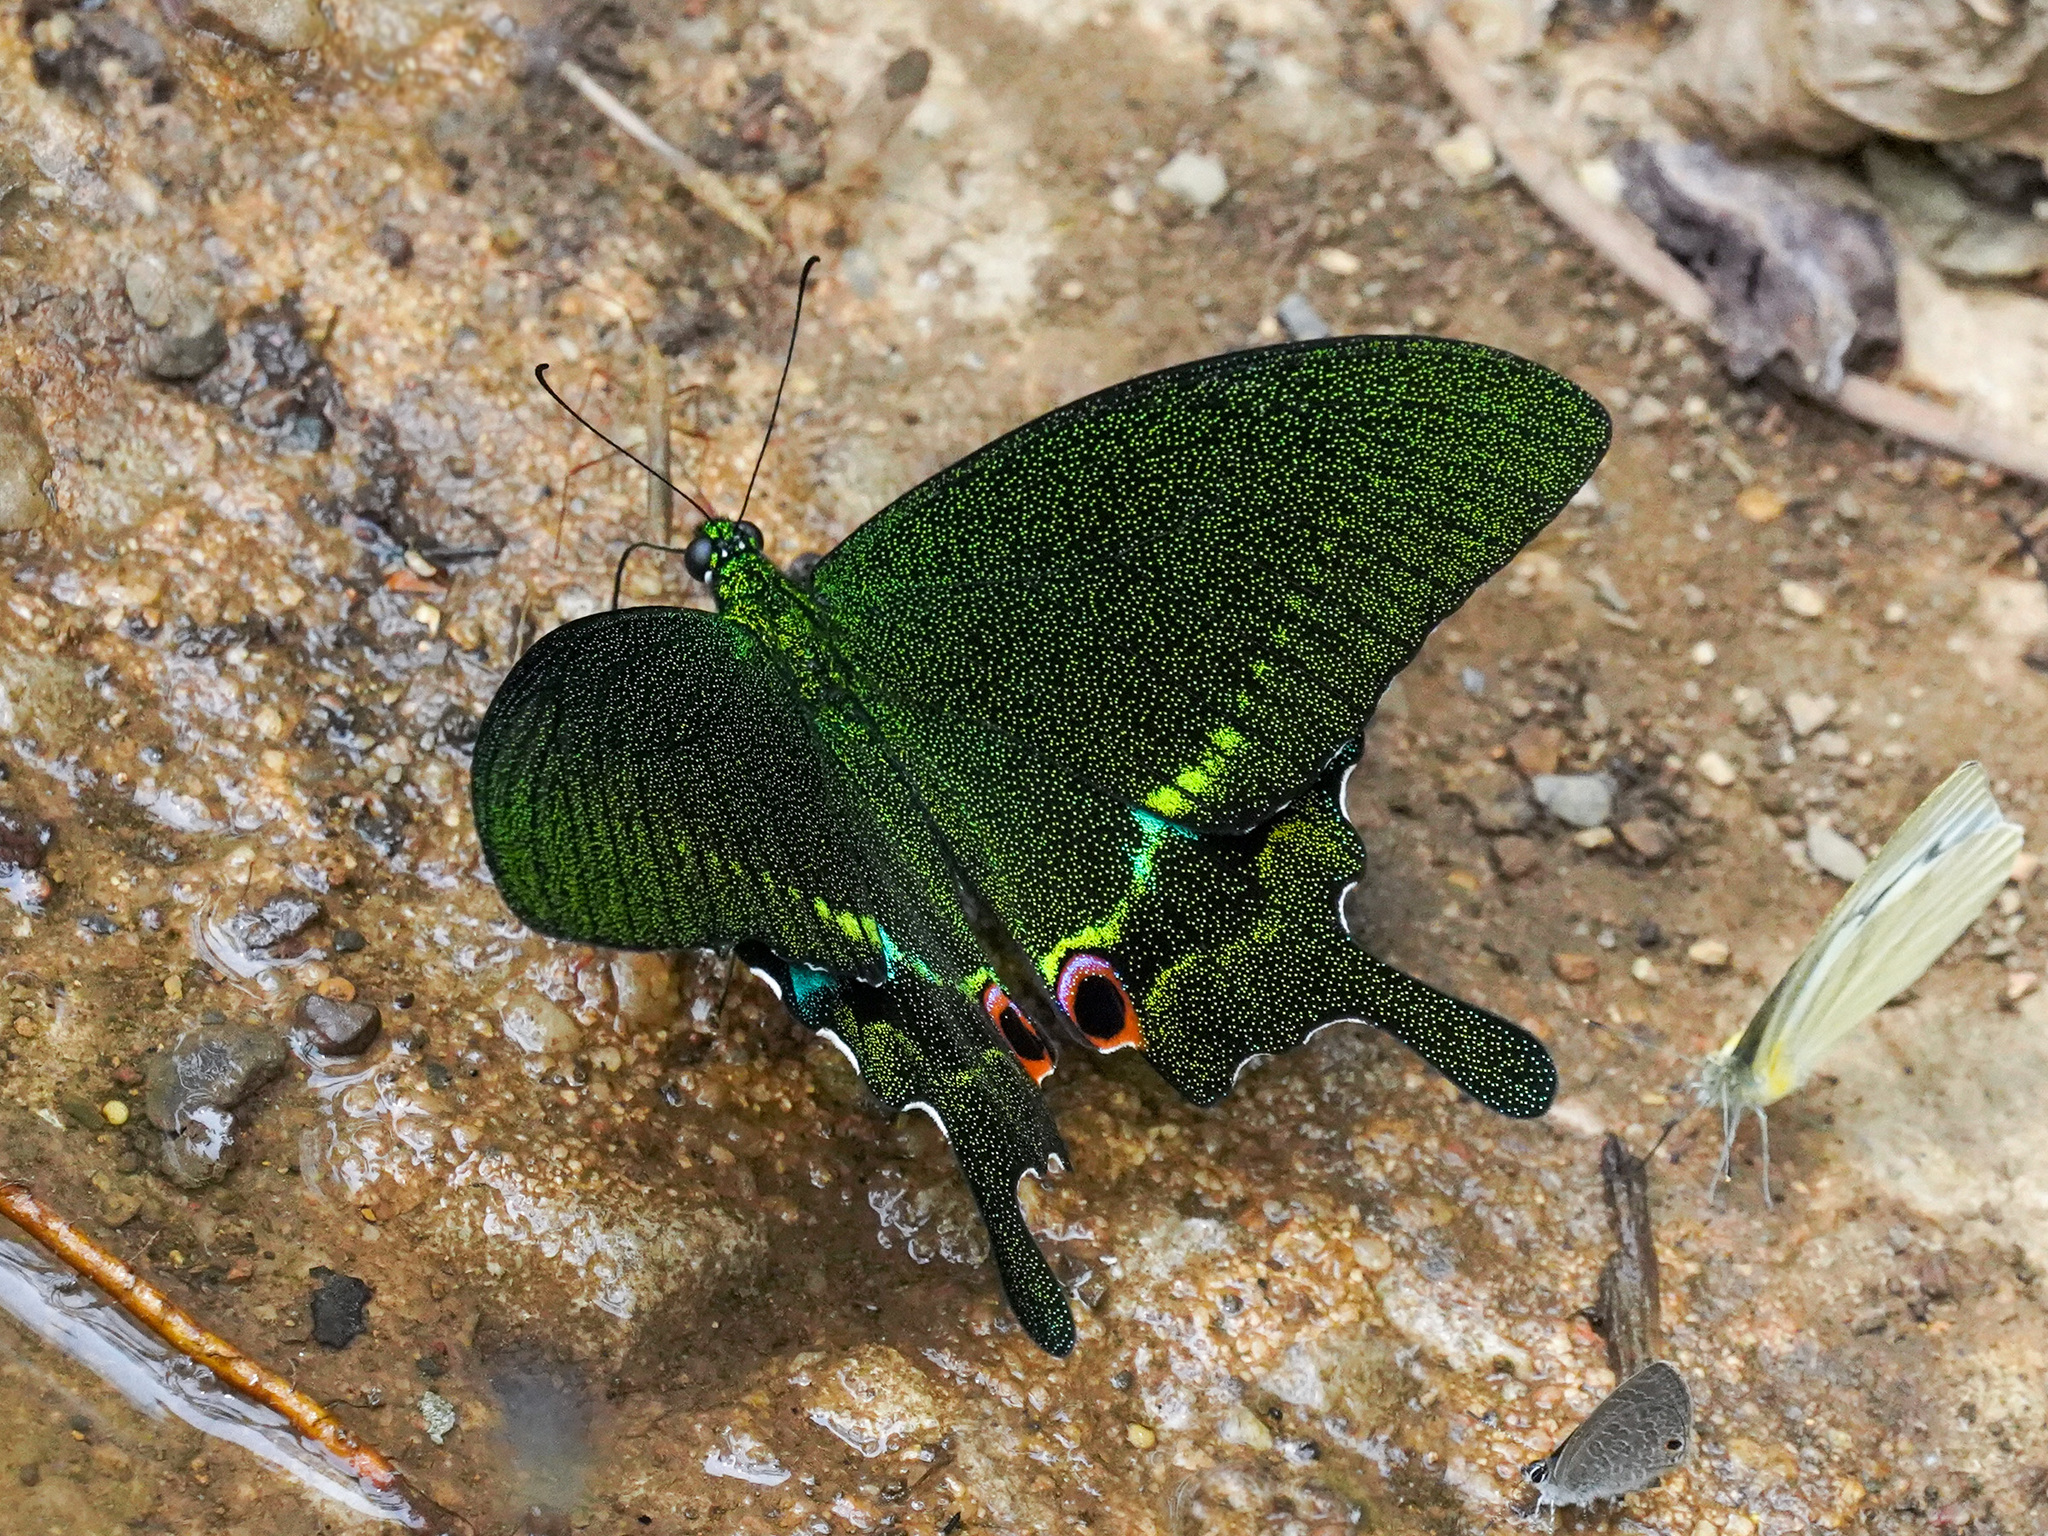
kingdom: Animalia
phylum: Arthropoda
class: Insecta
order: Lepidoptera
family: Papilionidae
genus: Papilio
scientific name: Papilio paris
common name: Paris peacock
